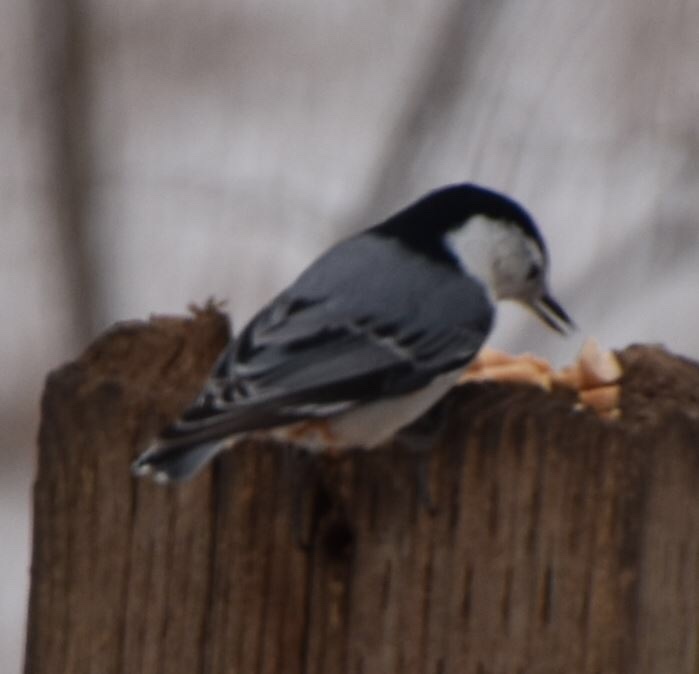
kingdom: Animalia
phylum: Chordata
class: Aves
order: Passeriformes
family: Sittidae
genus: Sitta
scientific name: Sitta carolinensis
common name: White-breasted nuthatch
